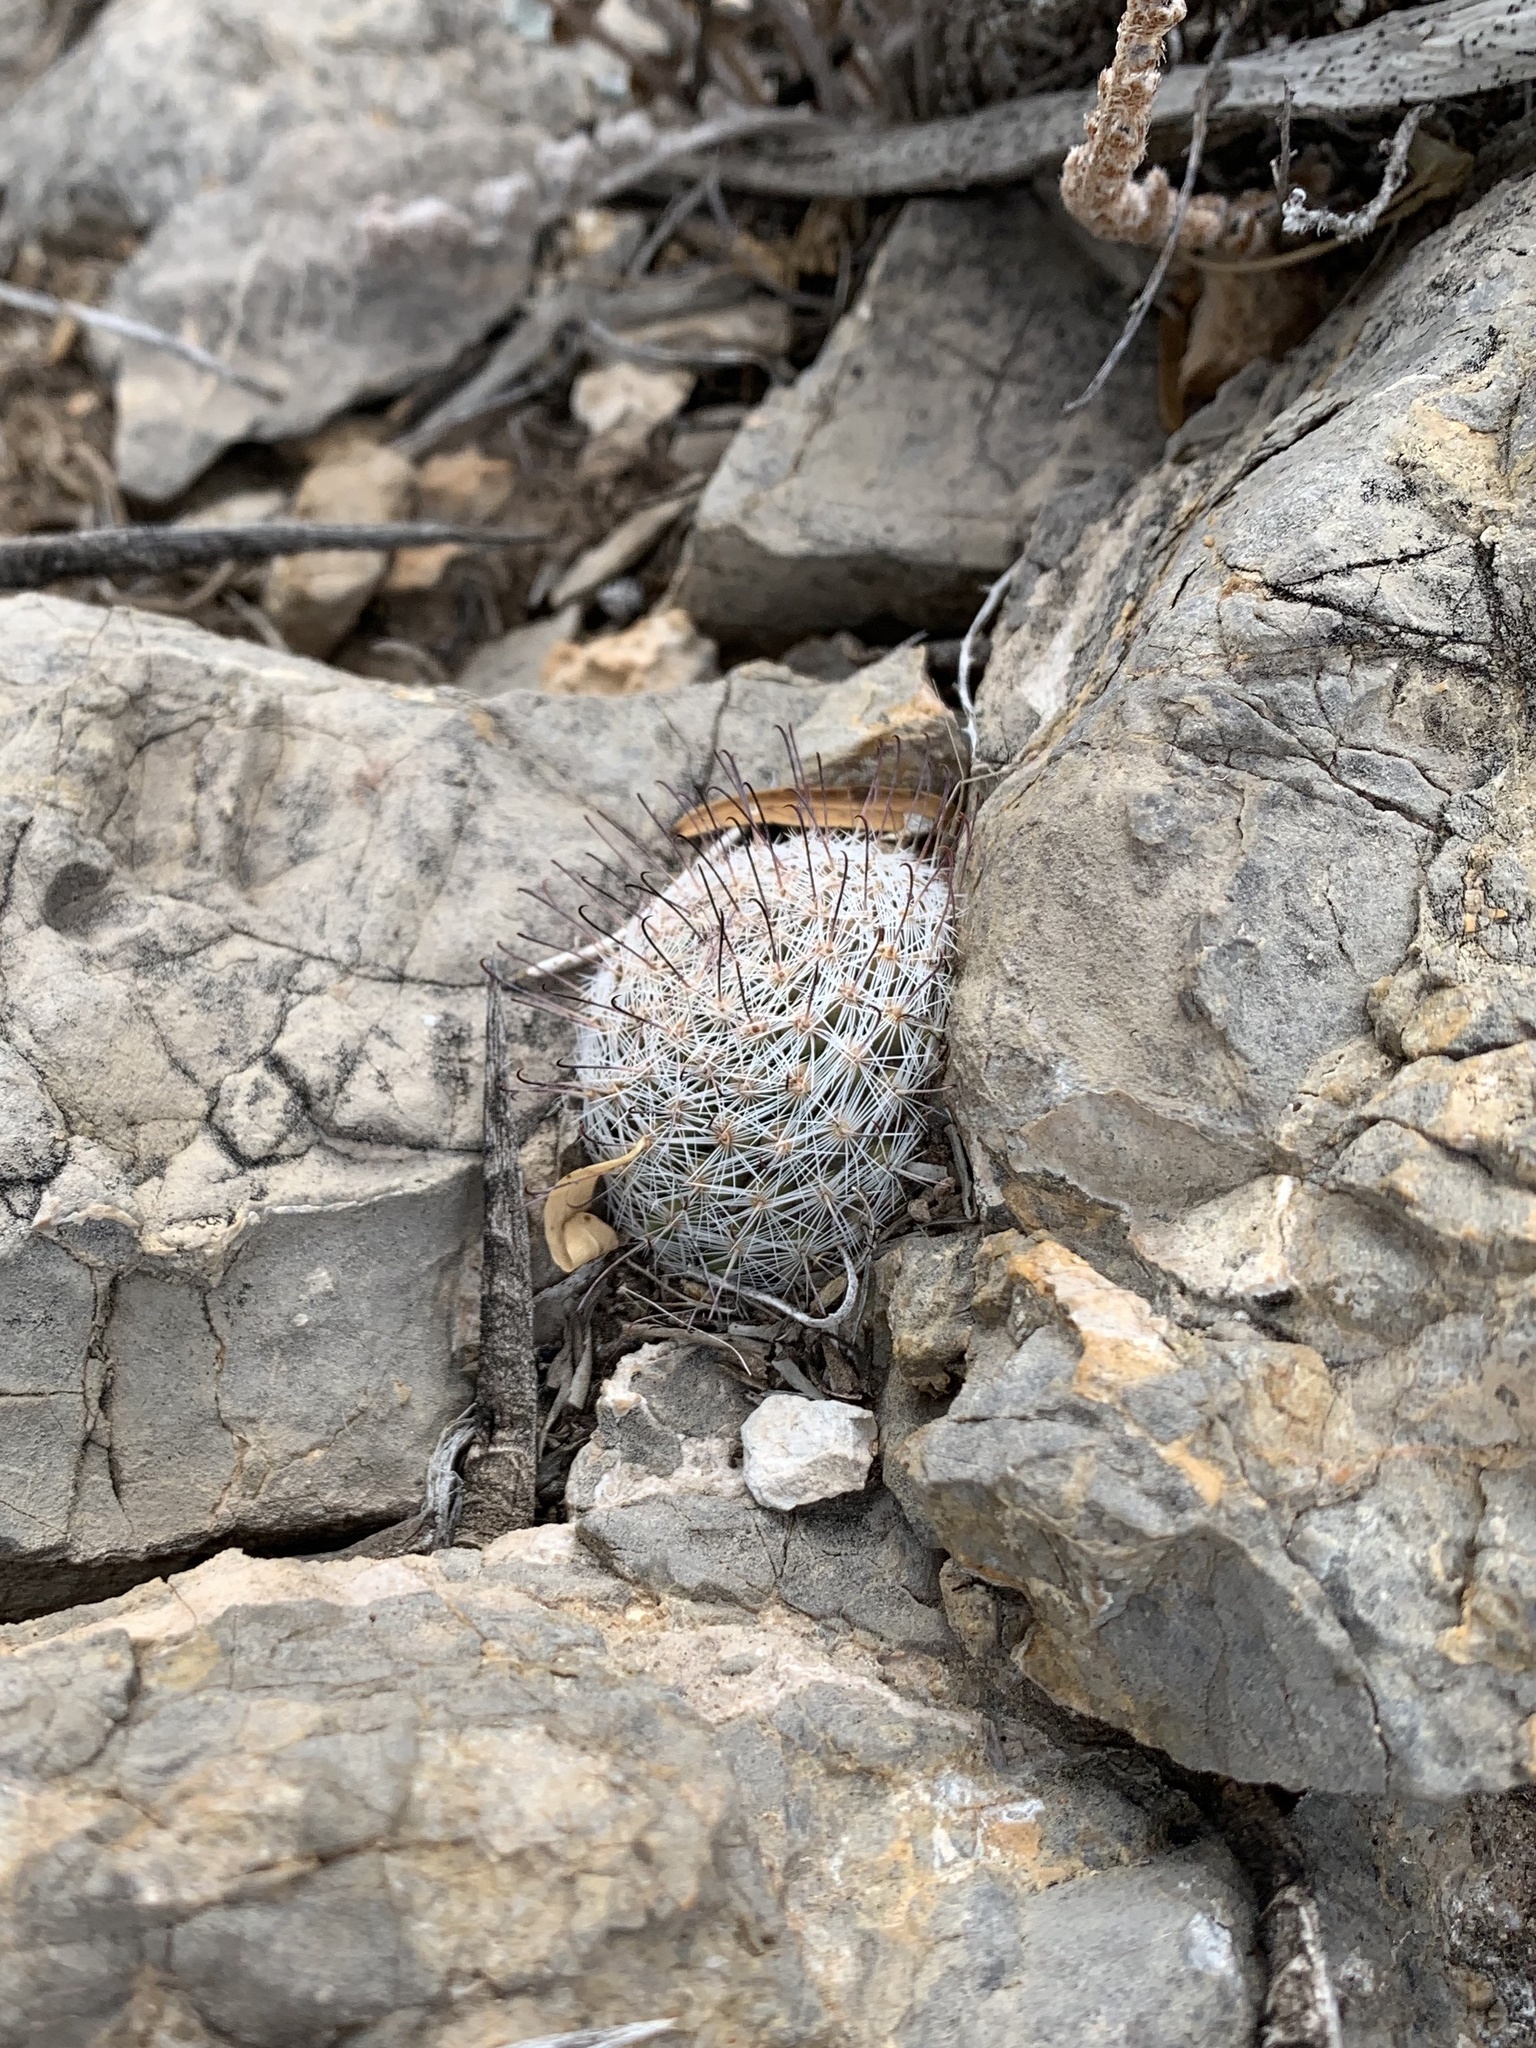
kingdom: Plantae
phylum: Tracheophyta
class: Magnoliopsida
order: Caryophyllales
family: Cactaceae
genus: Cochemiea
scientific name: Cochemiea grahamii
